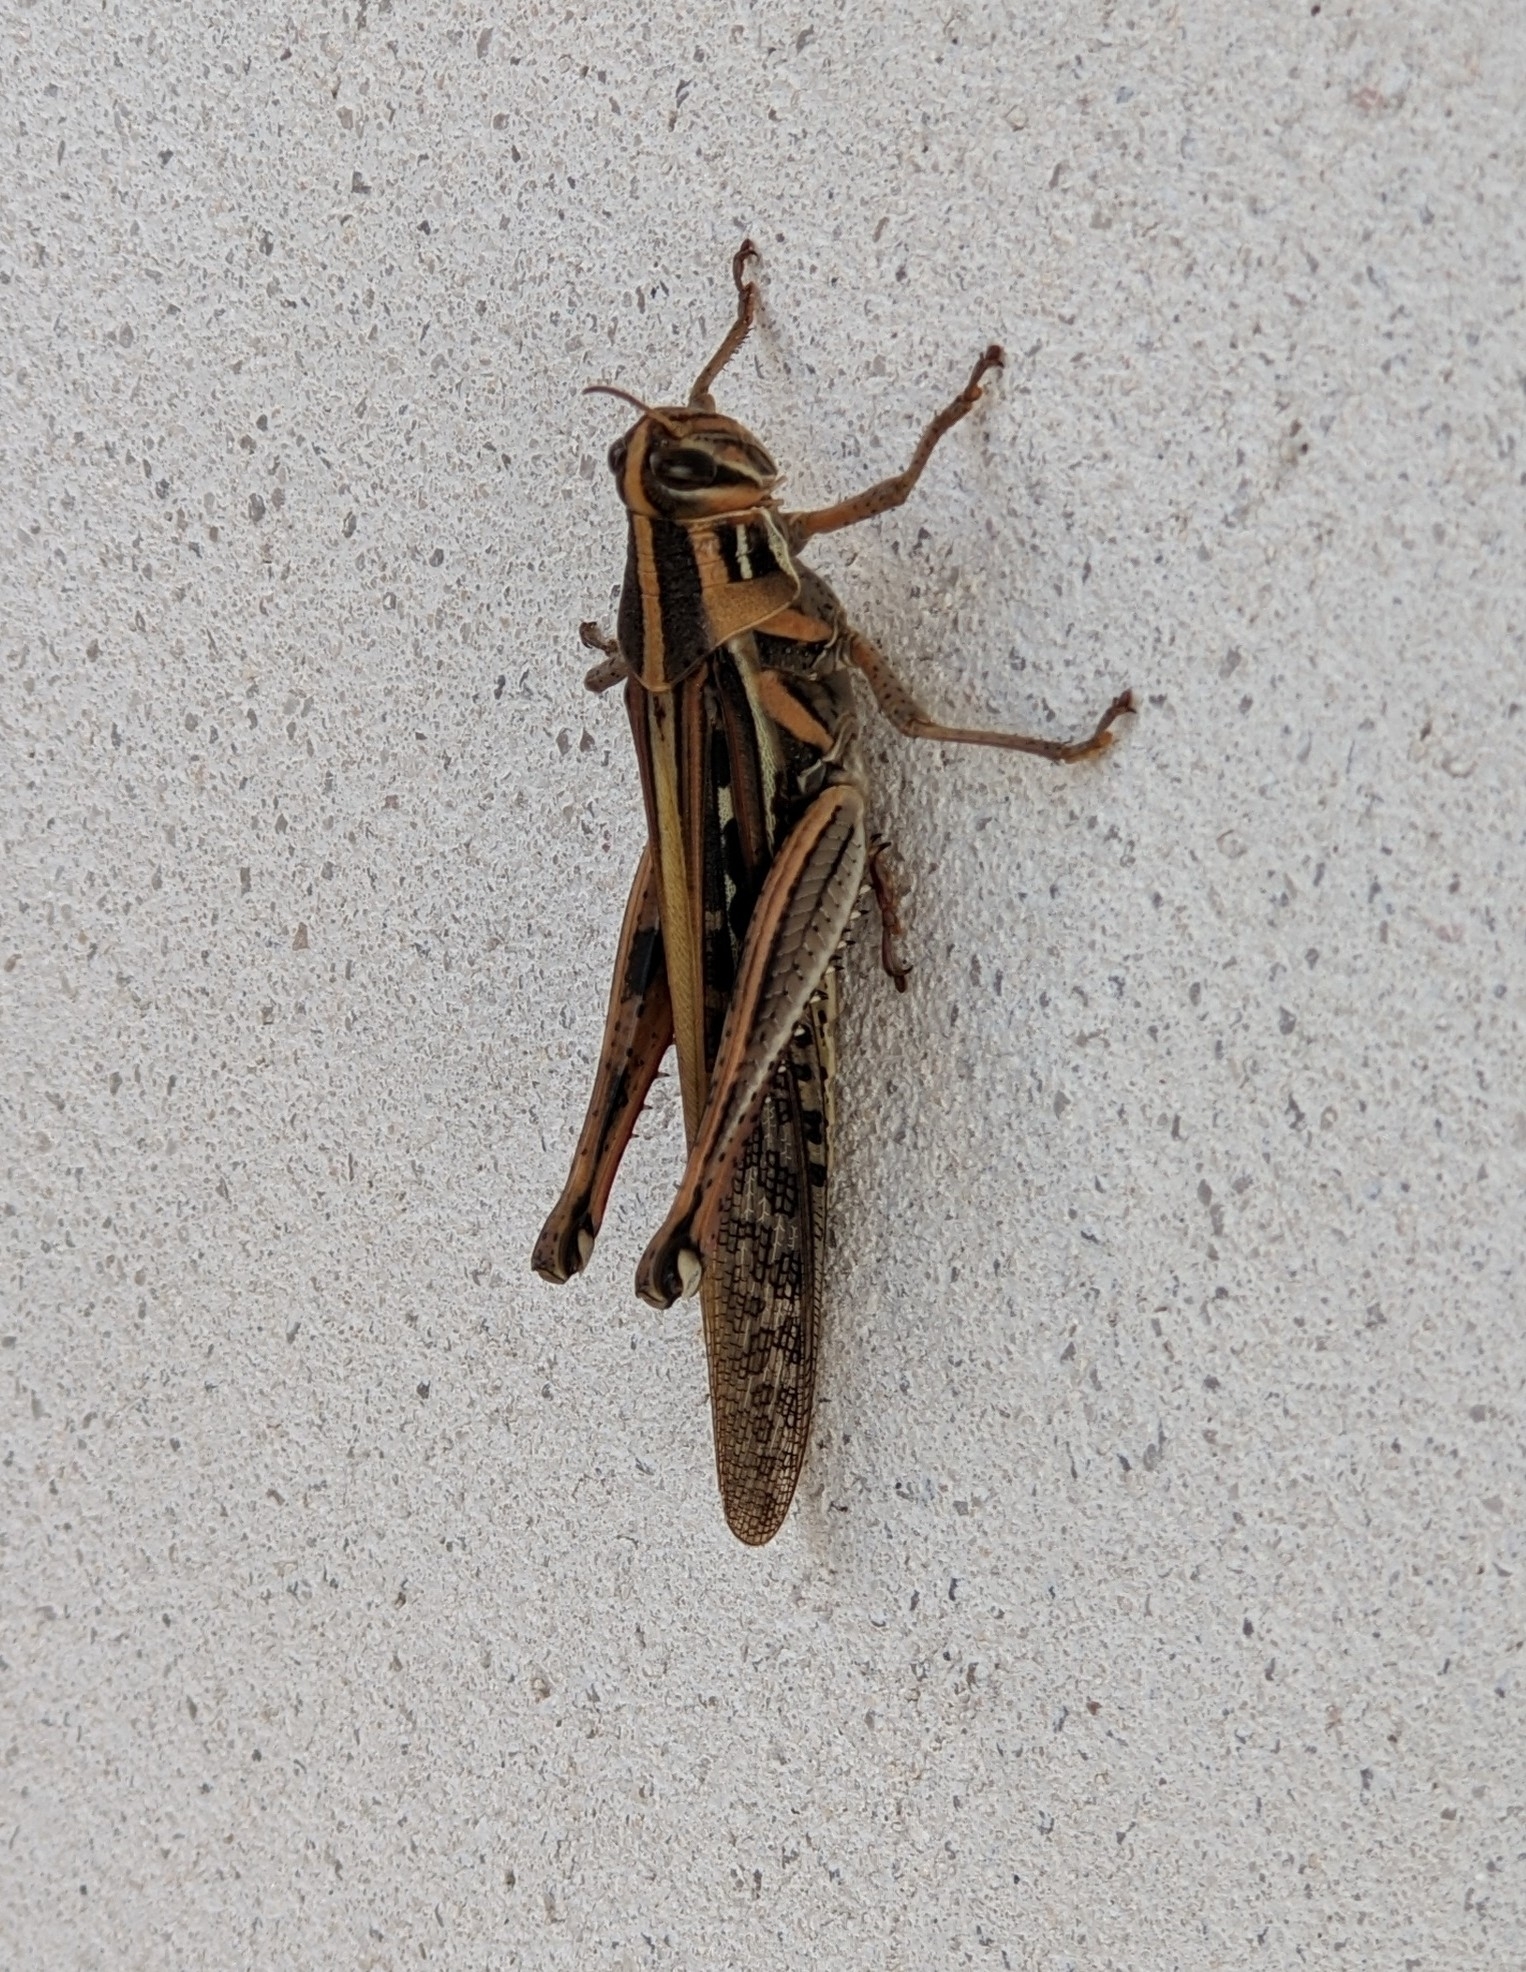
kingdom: Animalia
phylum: Arthropoda
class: Insecta
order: Orthoptera
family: Acrididae
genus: Schistocerca
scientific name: Schistocerca americana
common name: American bird locust
